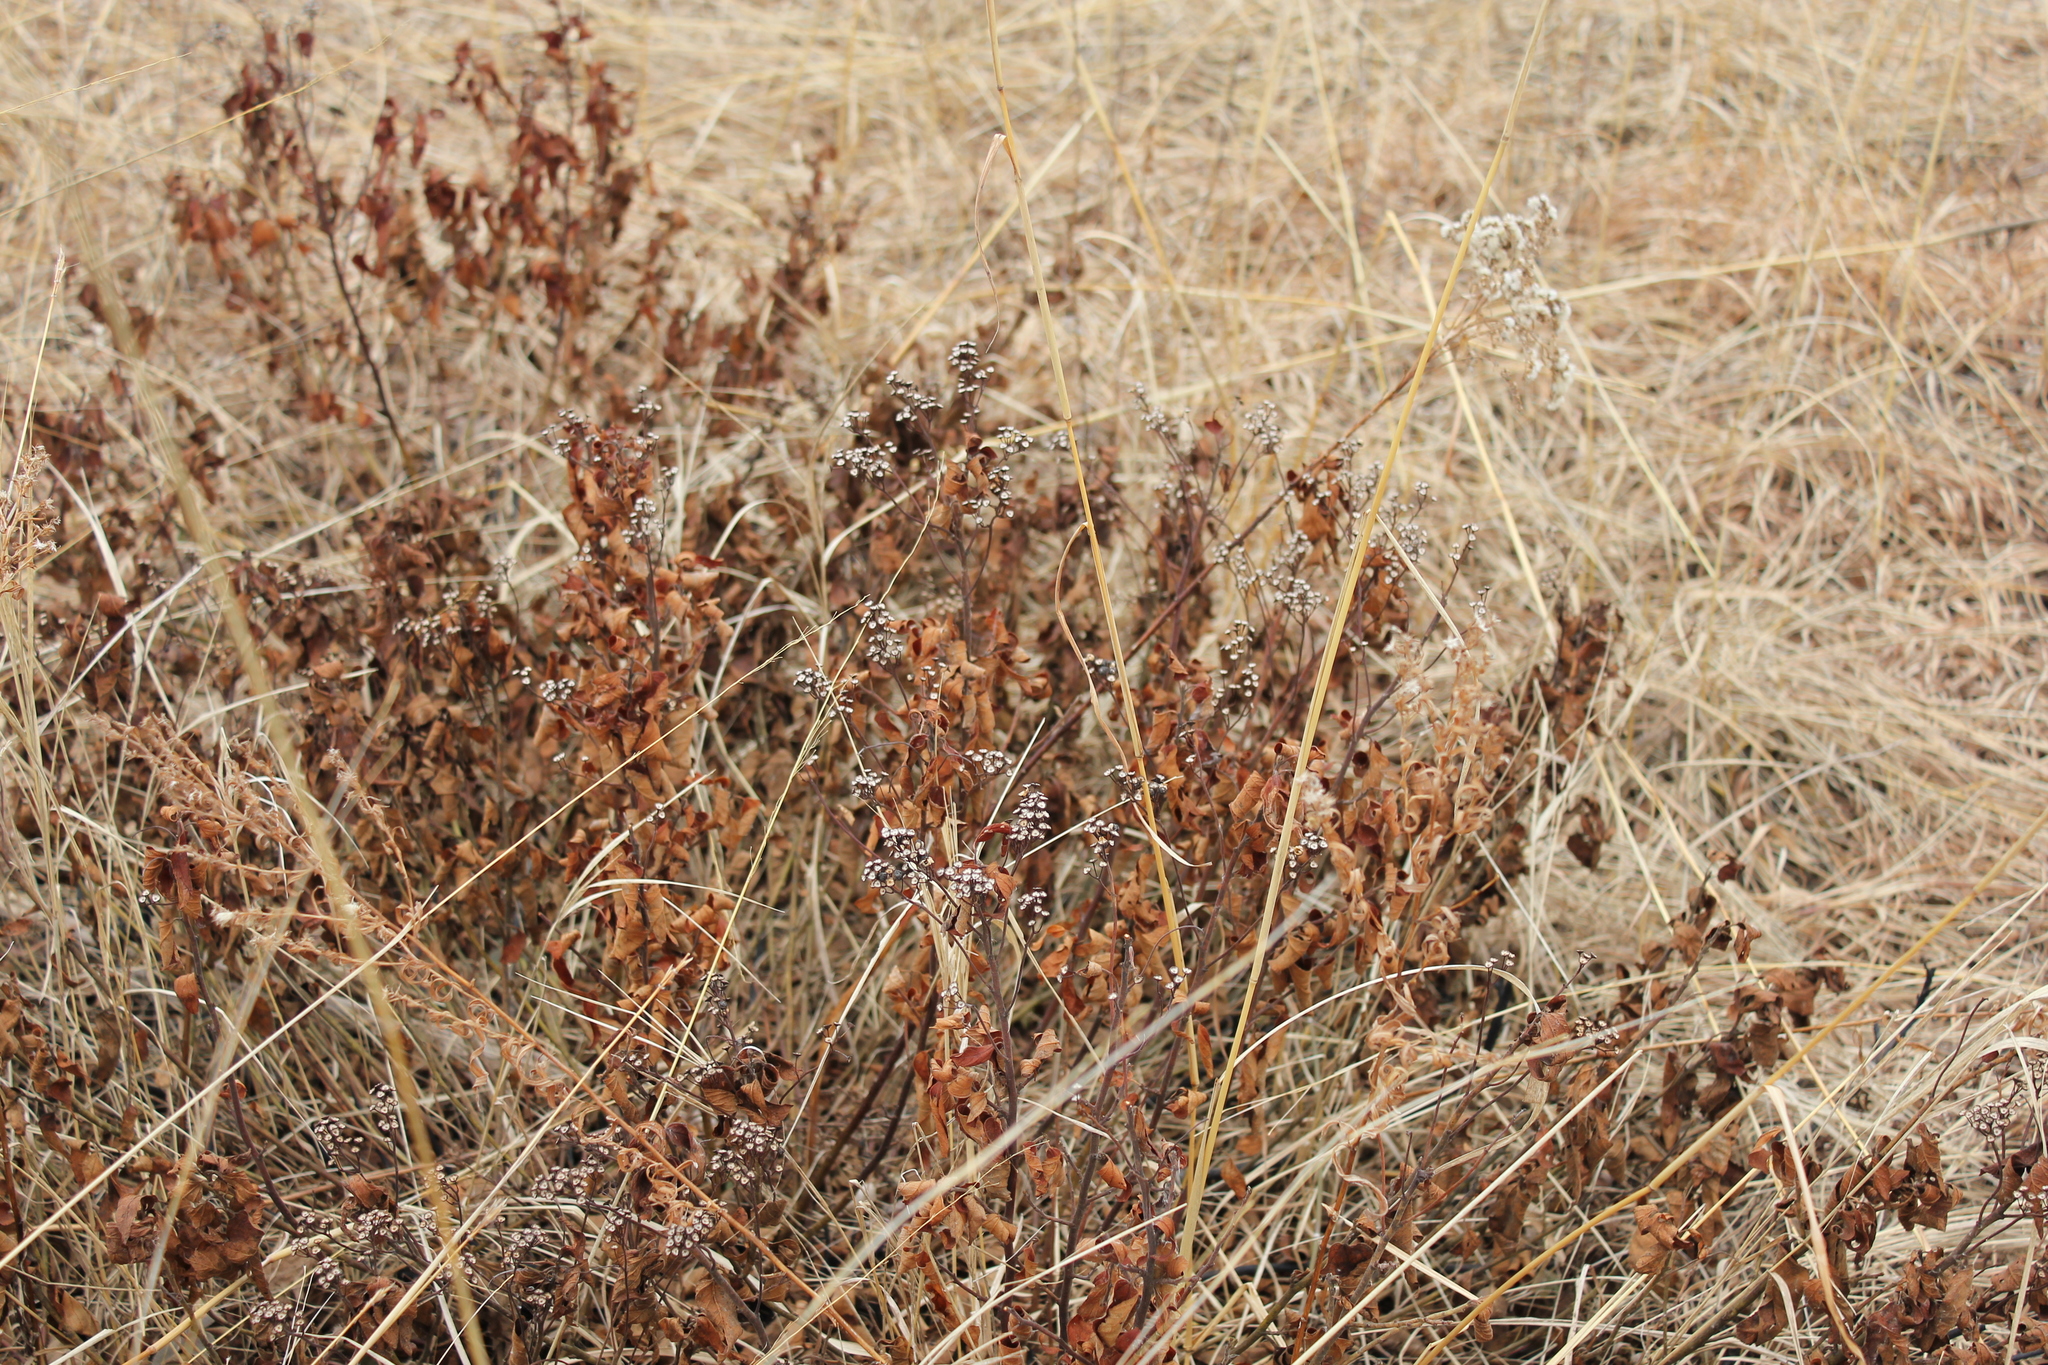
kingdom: Plantae
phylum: Tracheophyta
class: Magnoliopsida
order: Rosales
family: Rhamnaceae
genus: Ceanothus
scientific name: Ceanothus americanus
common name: Redroot
